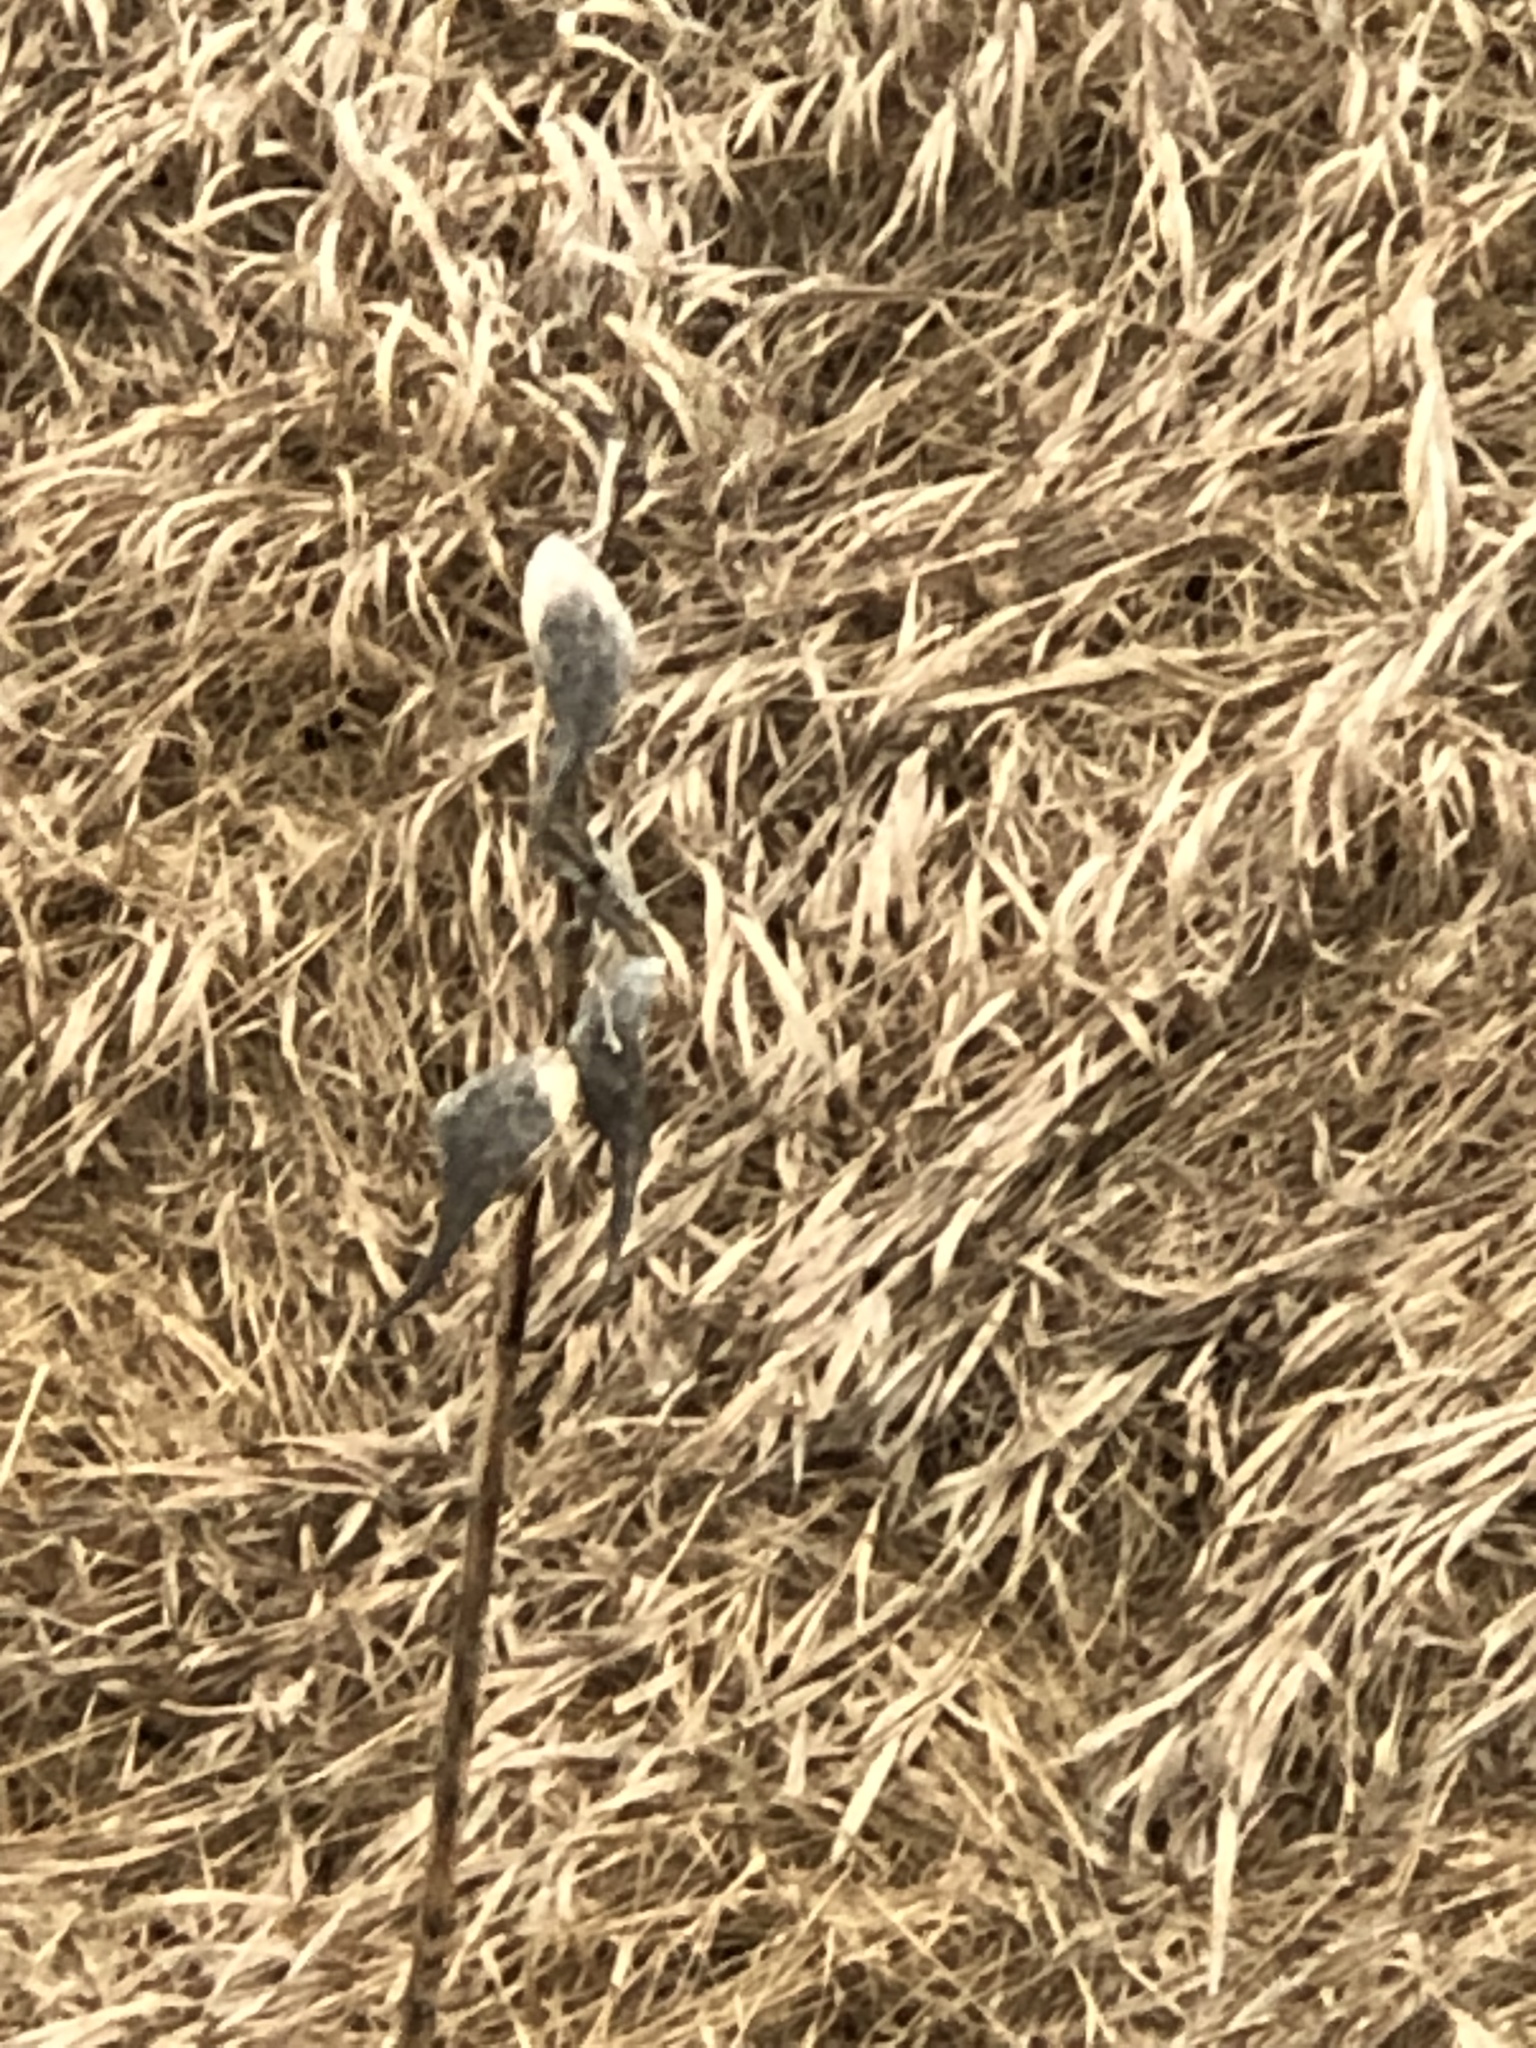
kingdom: Plantae
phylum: Tracheophyta
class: Magnoliopsida
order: Gentianales
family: Apocynaceae
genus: Asclepias
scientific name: Asclepias syriaca
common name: Common milkweed
